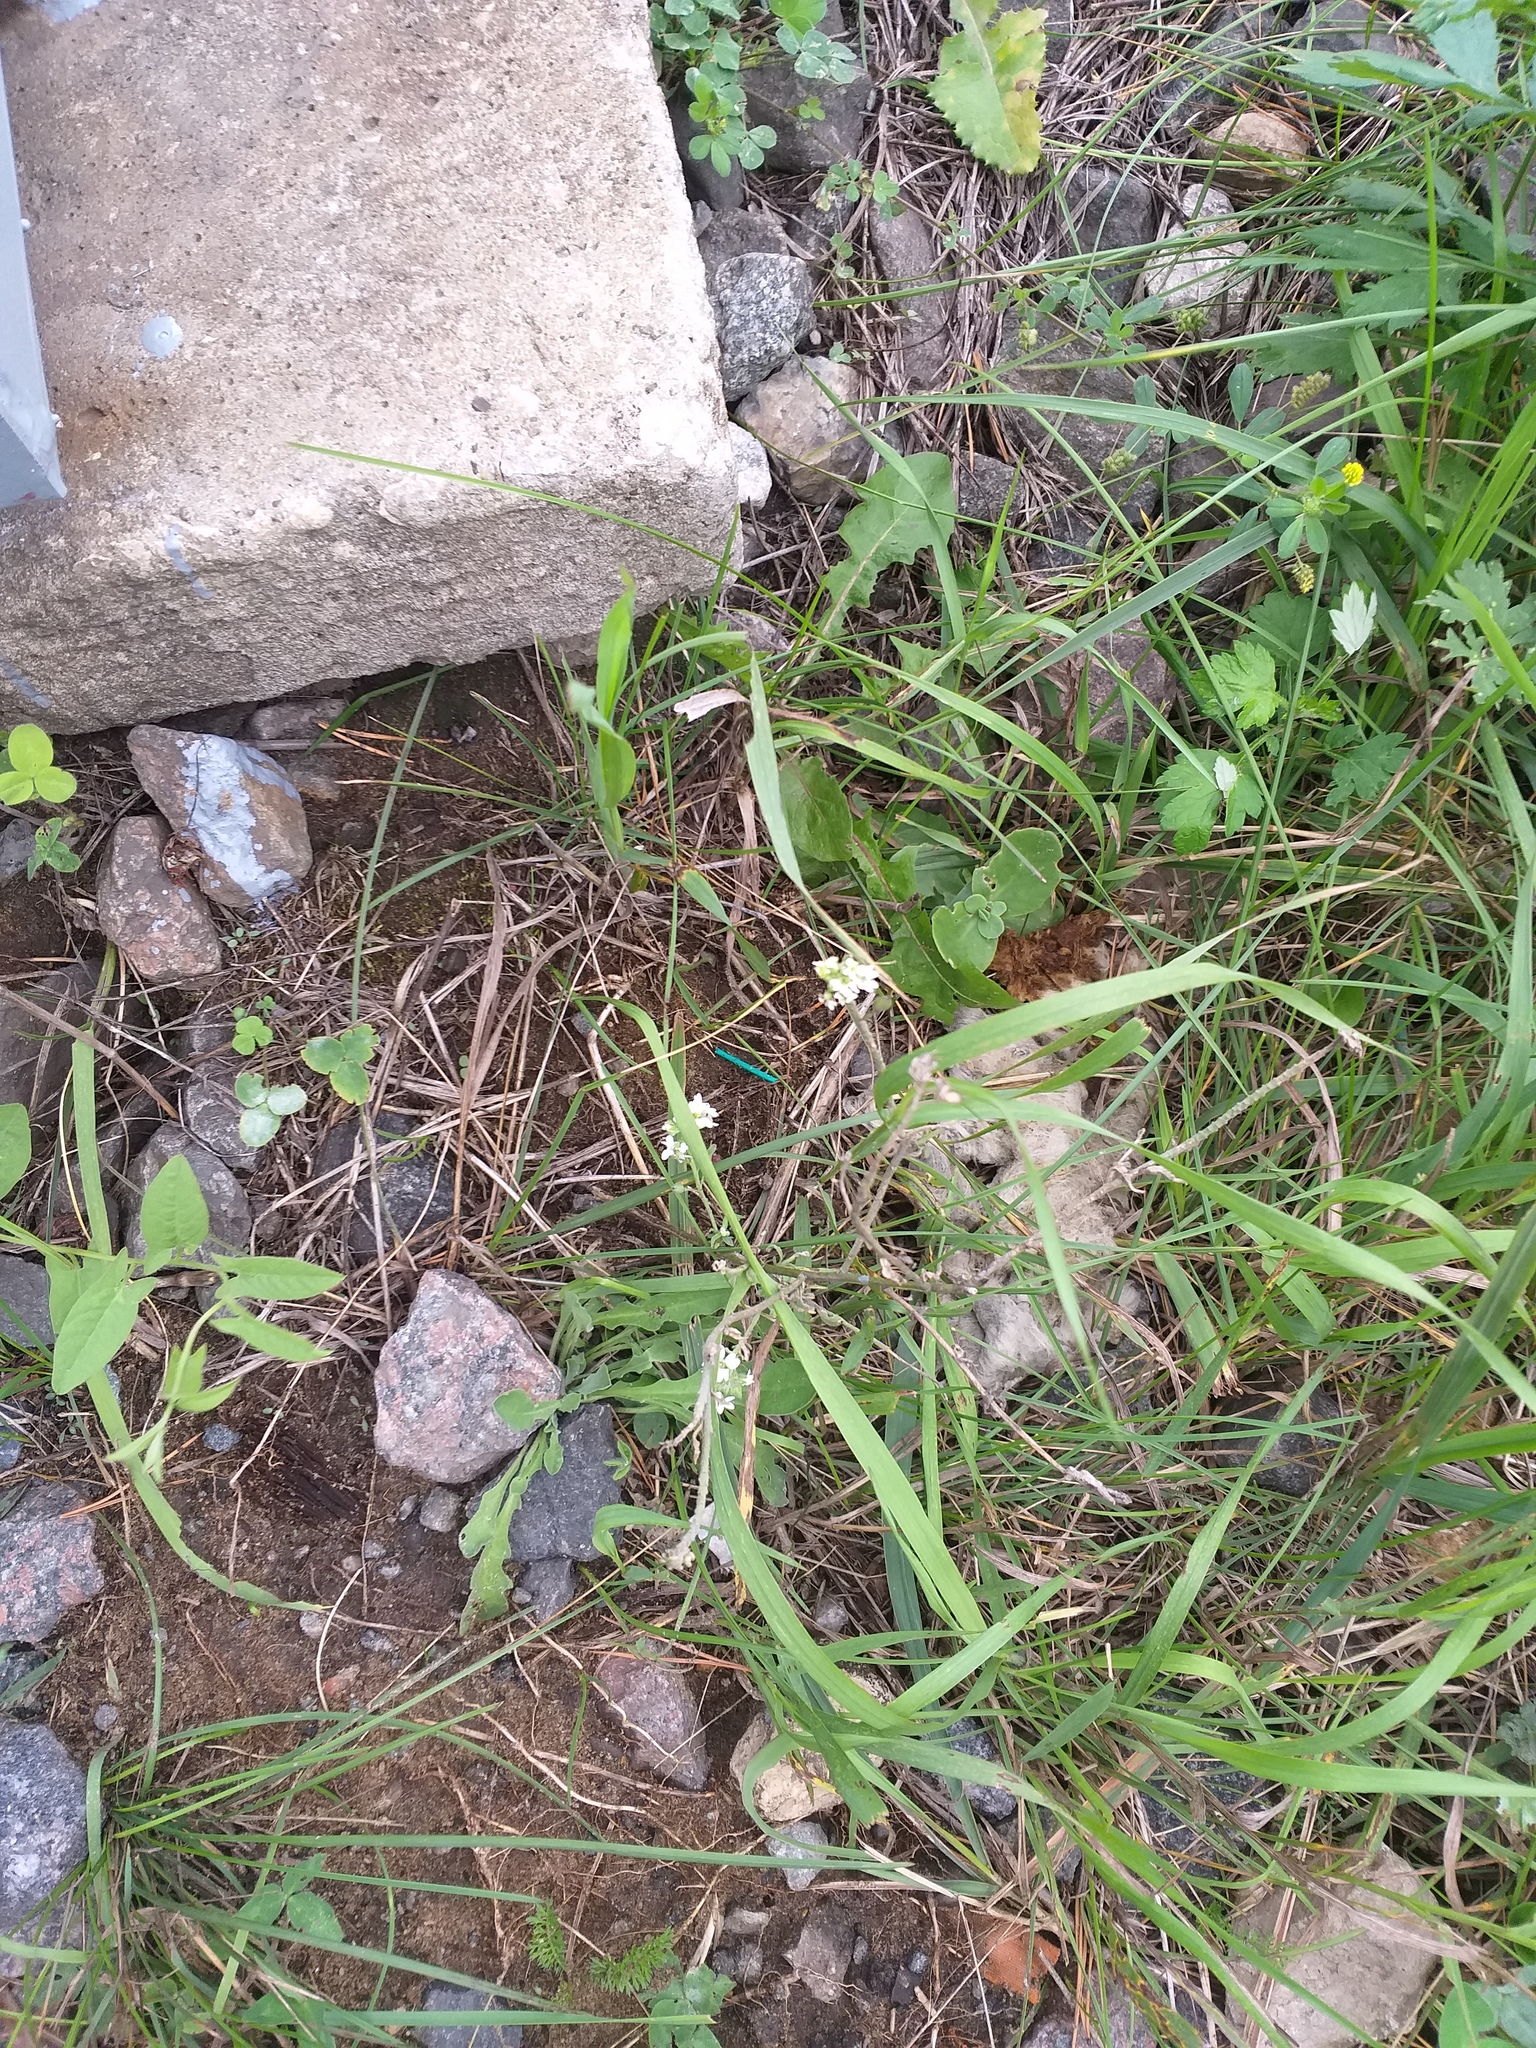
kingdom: Plantae
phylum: Tracheophyta
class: Magnoliopsida
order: Brassicales
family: Brassicaceae
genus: Berteroa
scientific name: Berteroa incana
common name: Hoary alison
